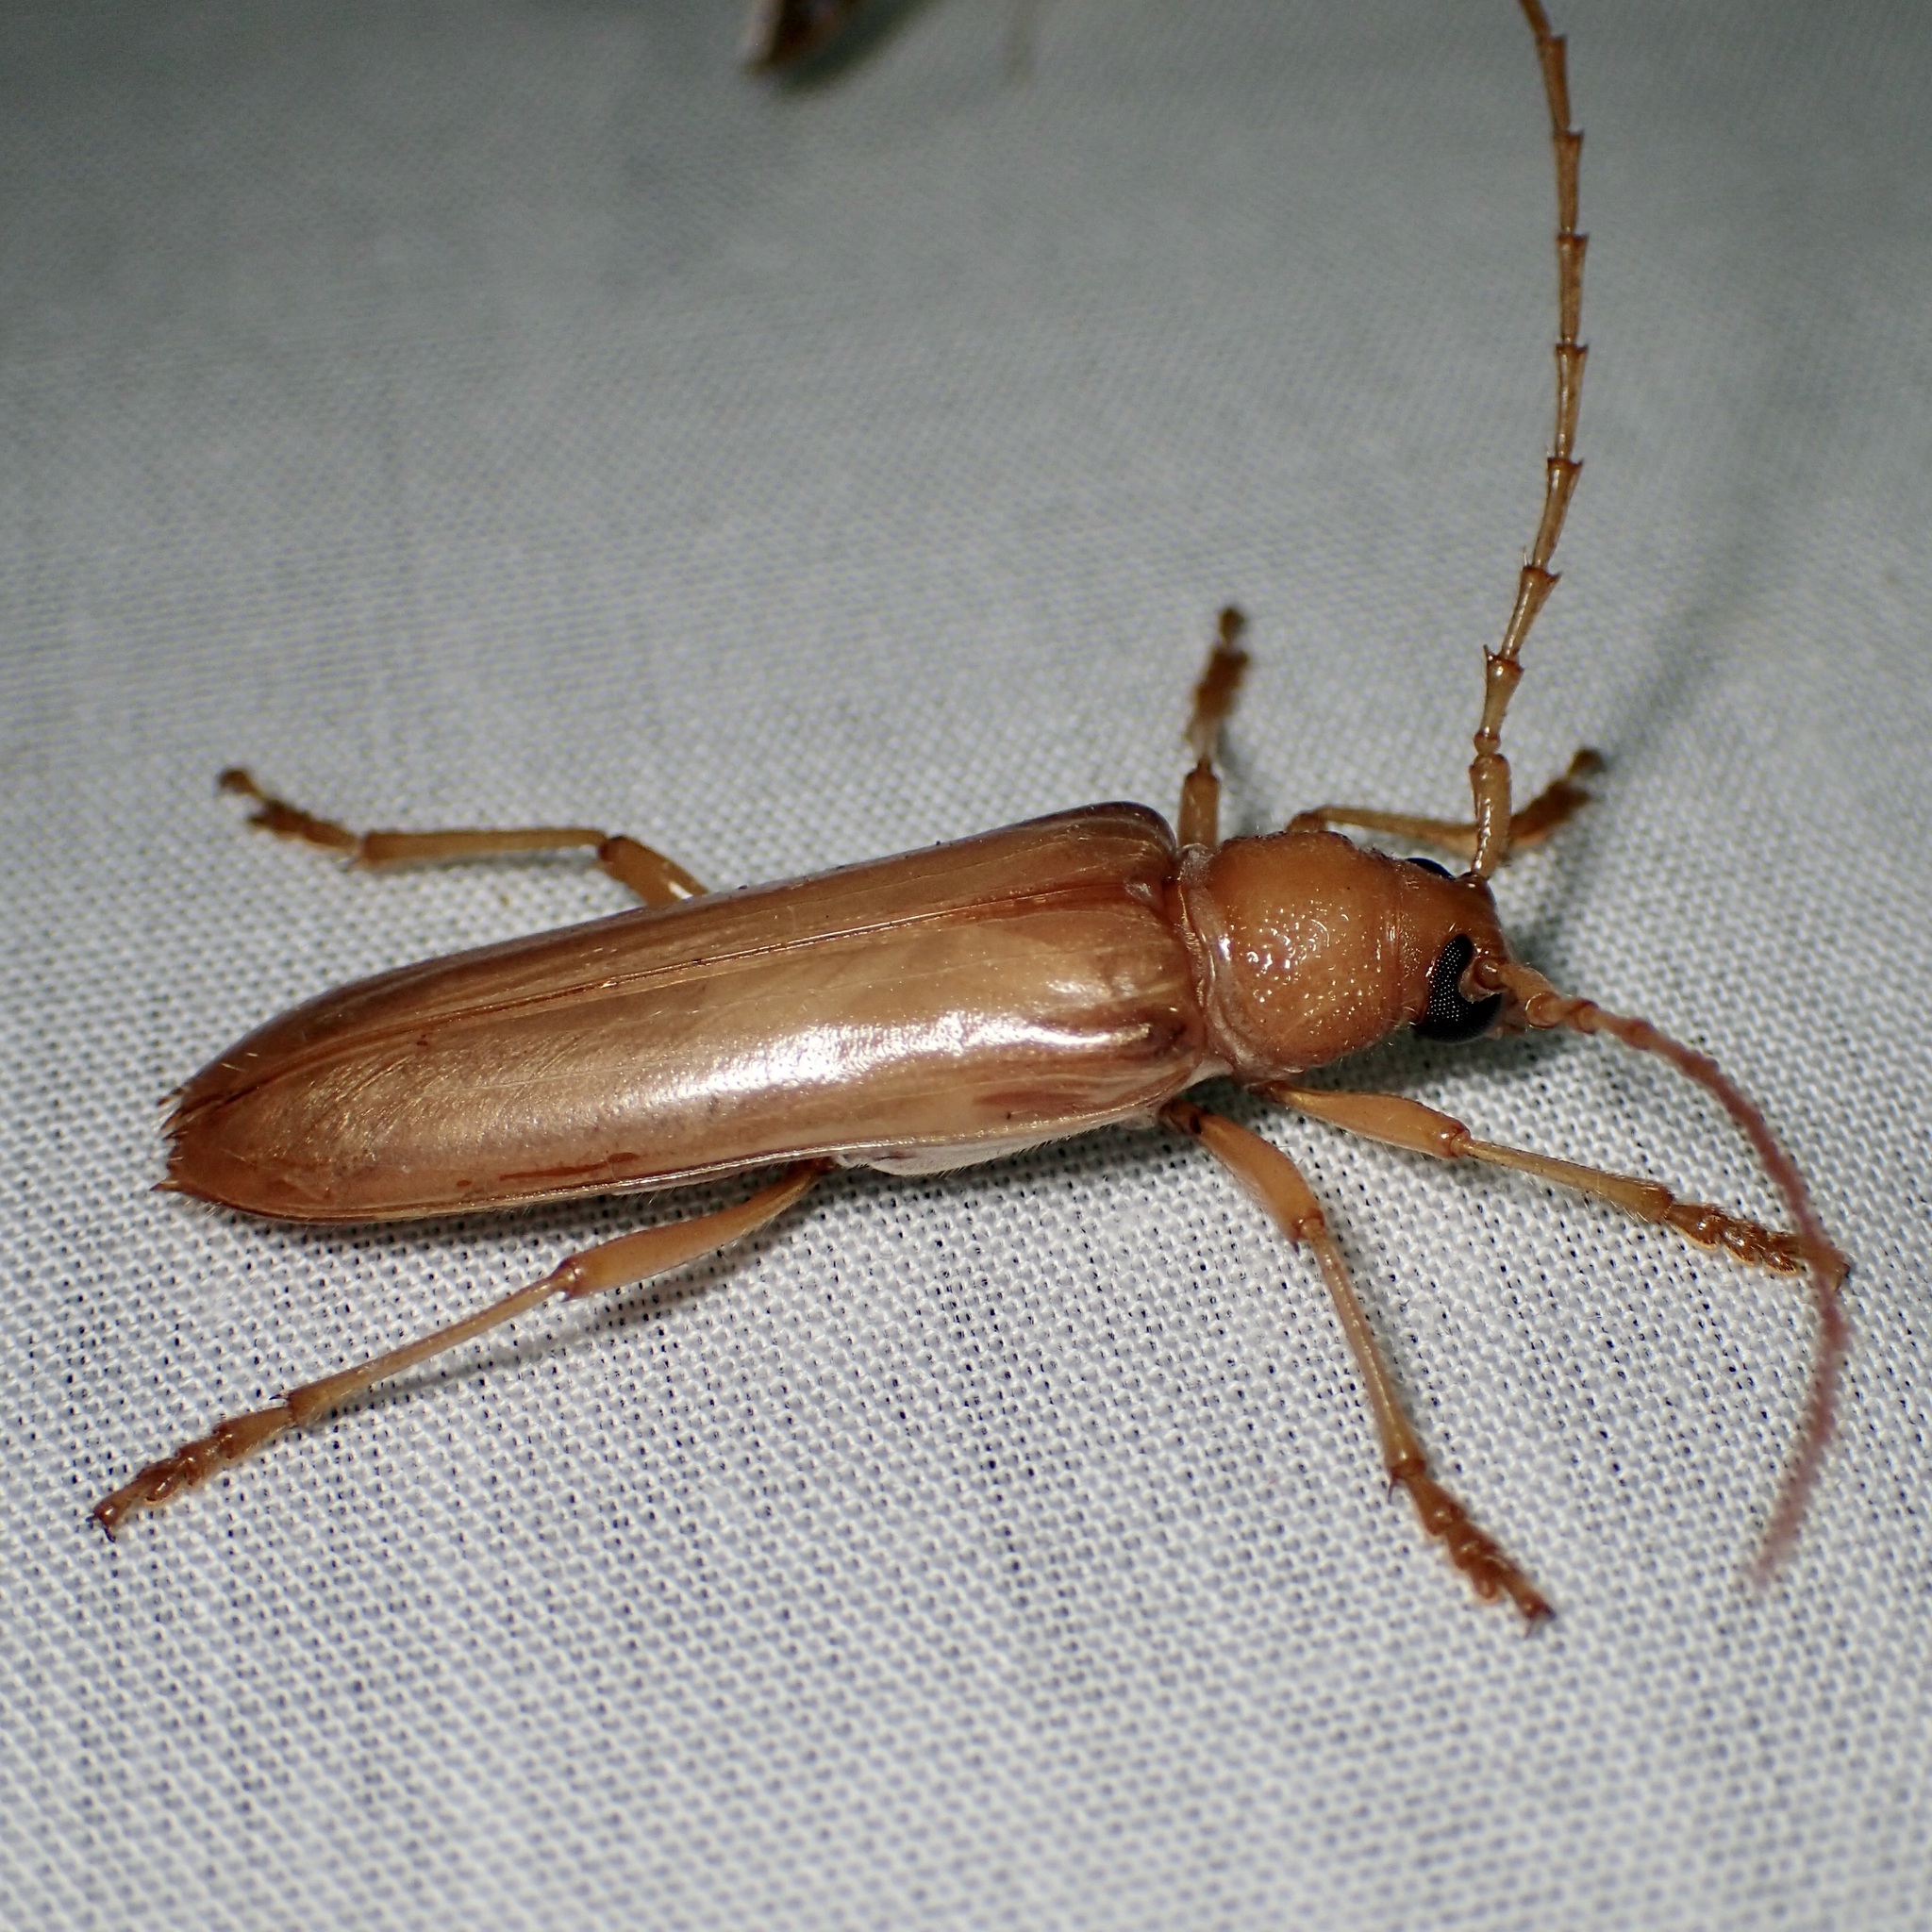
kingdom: Animalia
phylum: Arthropoda
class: Insecta
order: Coleoptera
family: Cerambycidae
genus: Atylostagma
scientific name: Atylostagma polita
